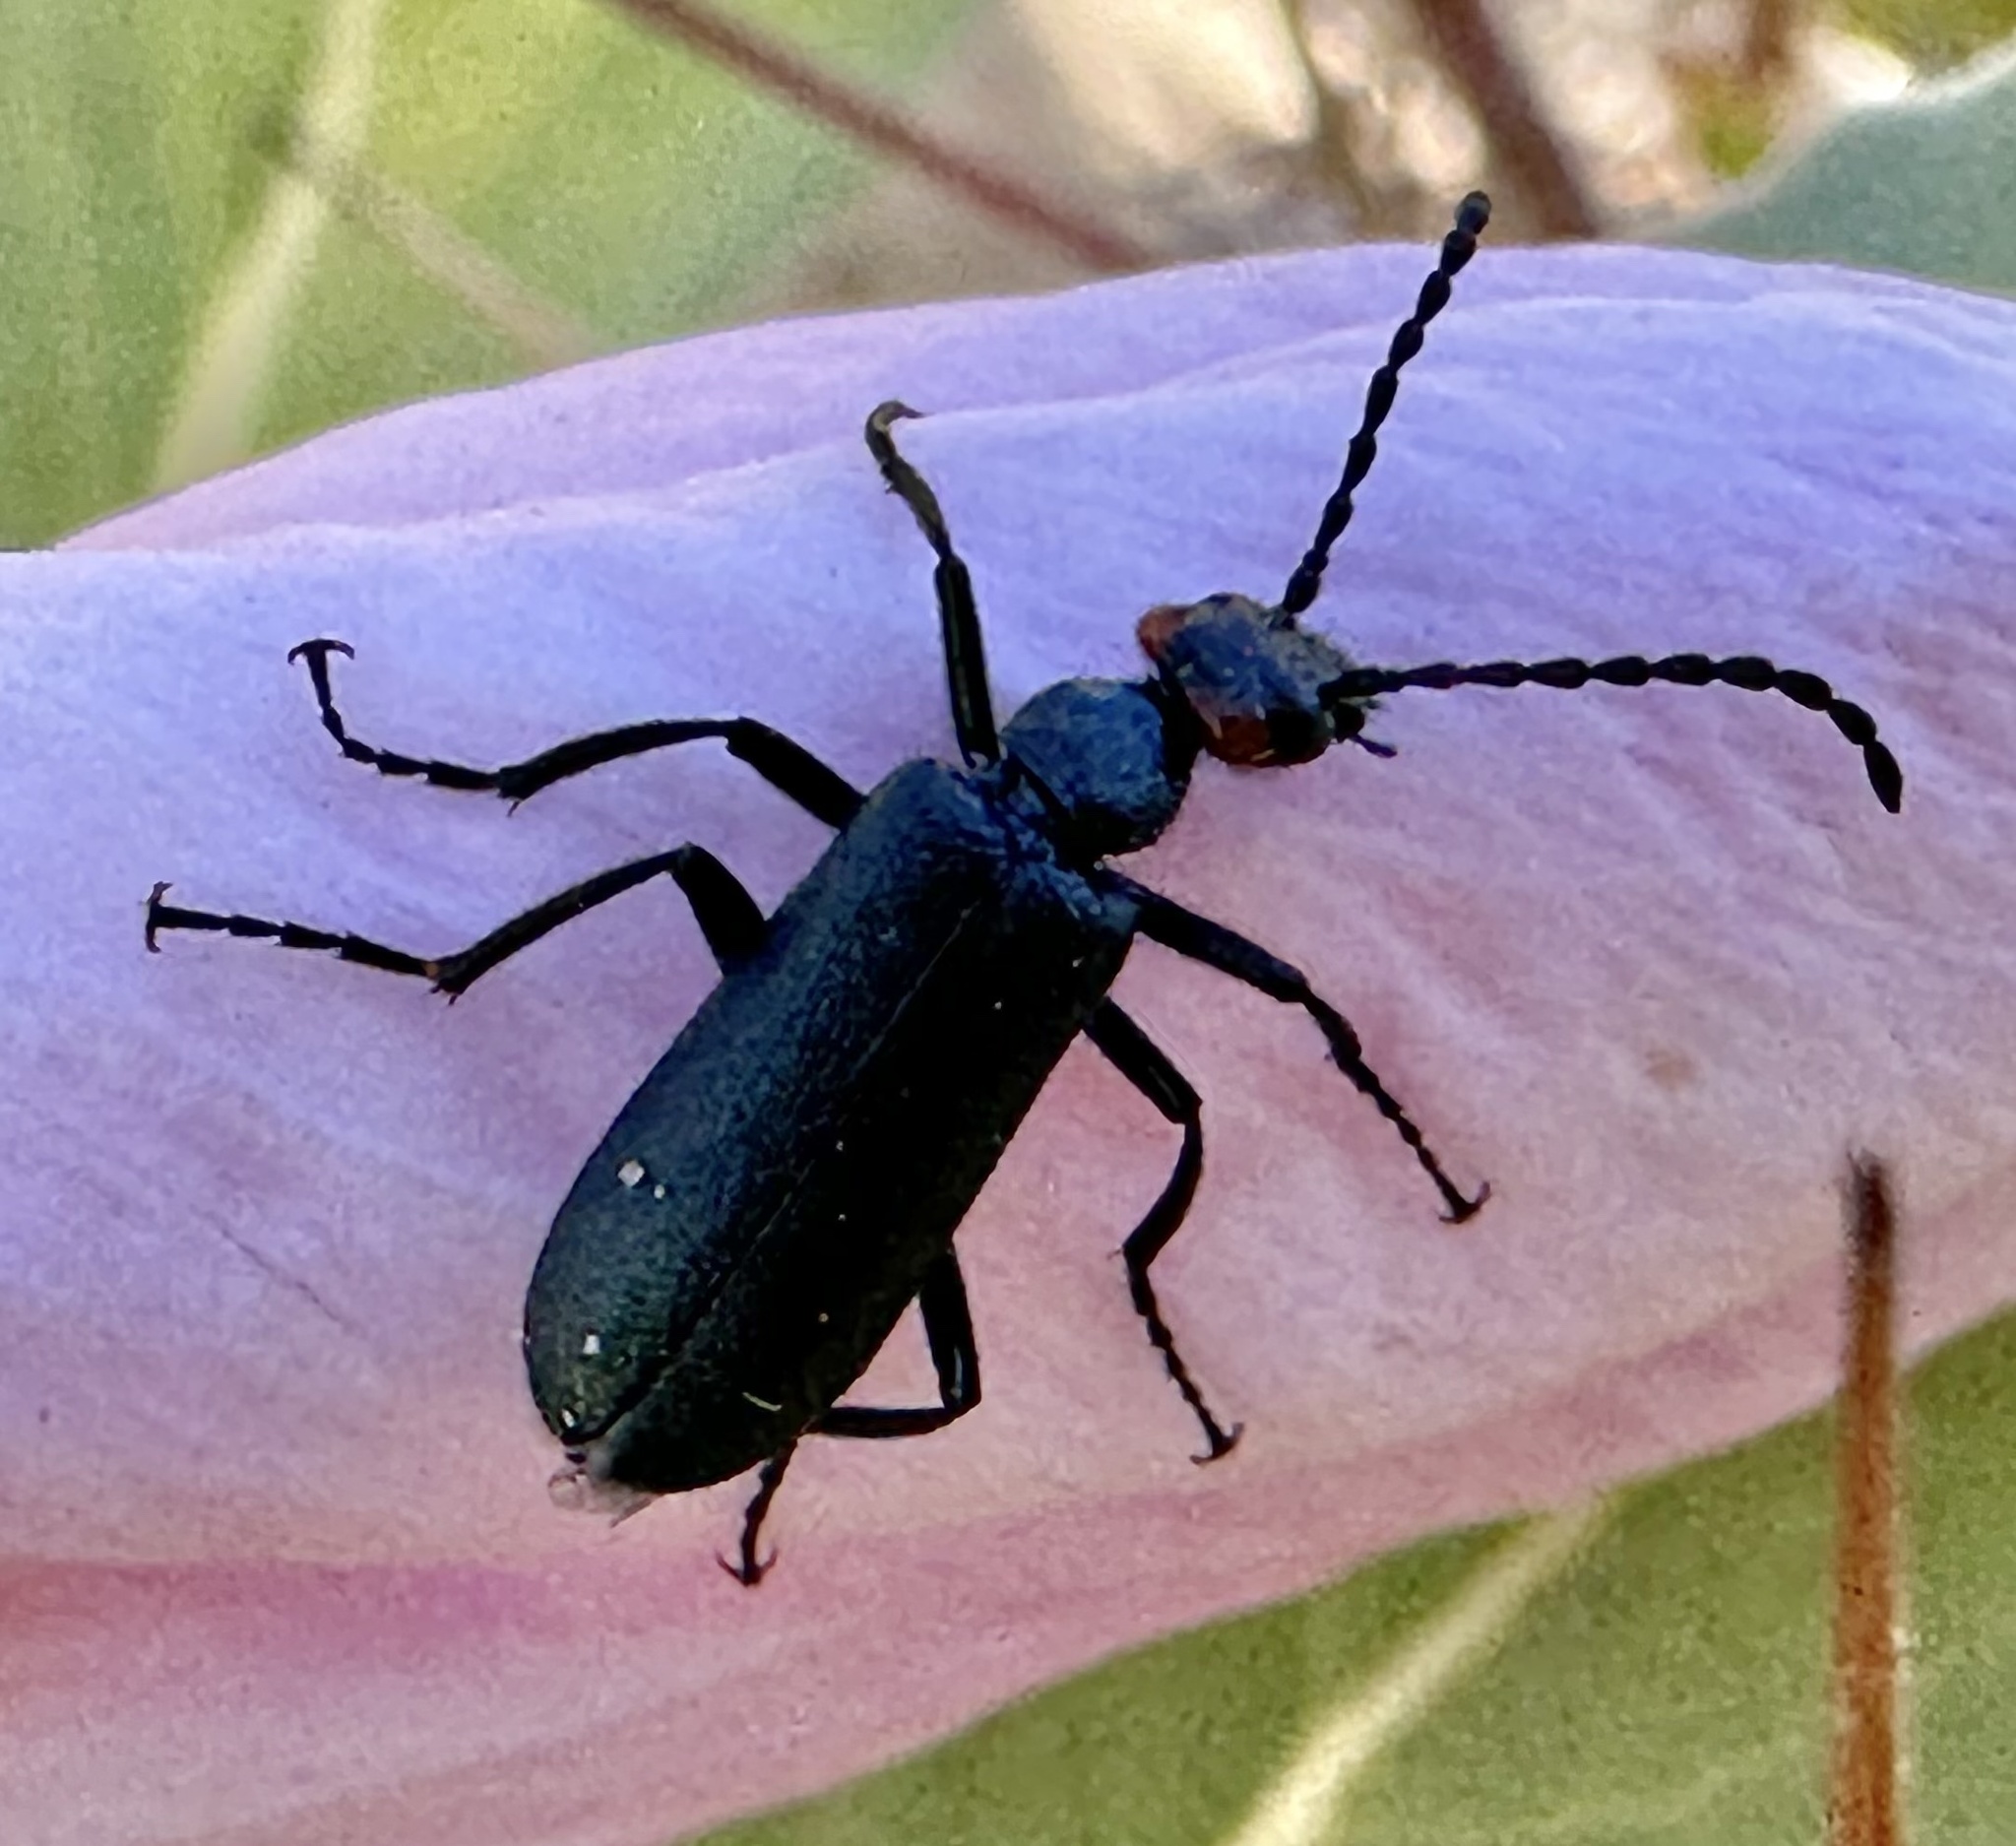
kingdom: Animalia
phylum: Arthropoda
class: Insecta
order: Coleoptera
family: Meloidae
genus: Lytta
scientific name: Lytta auriculata
